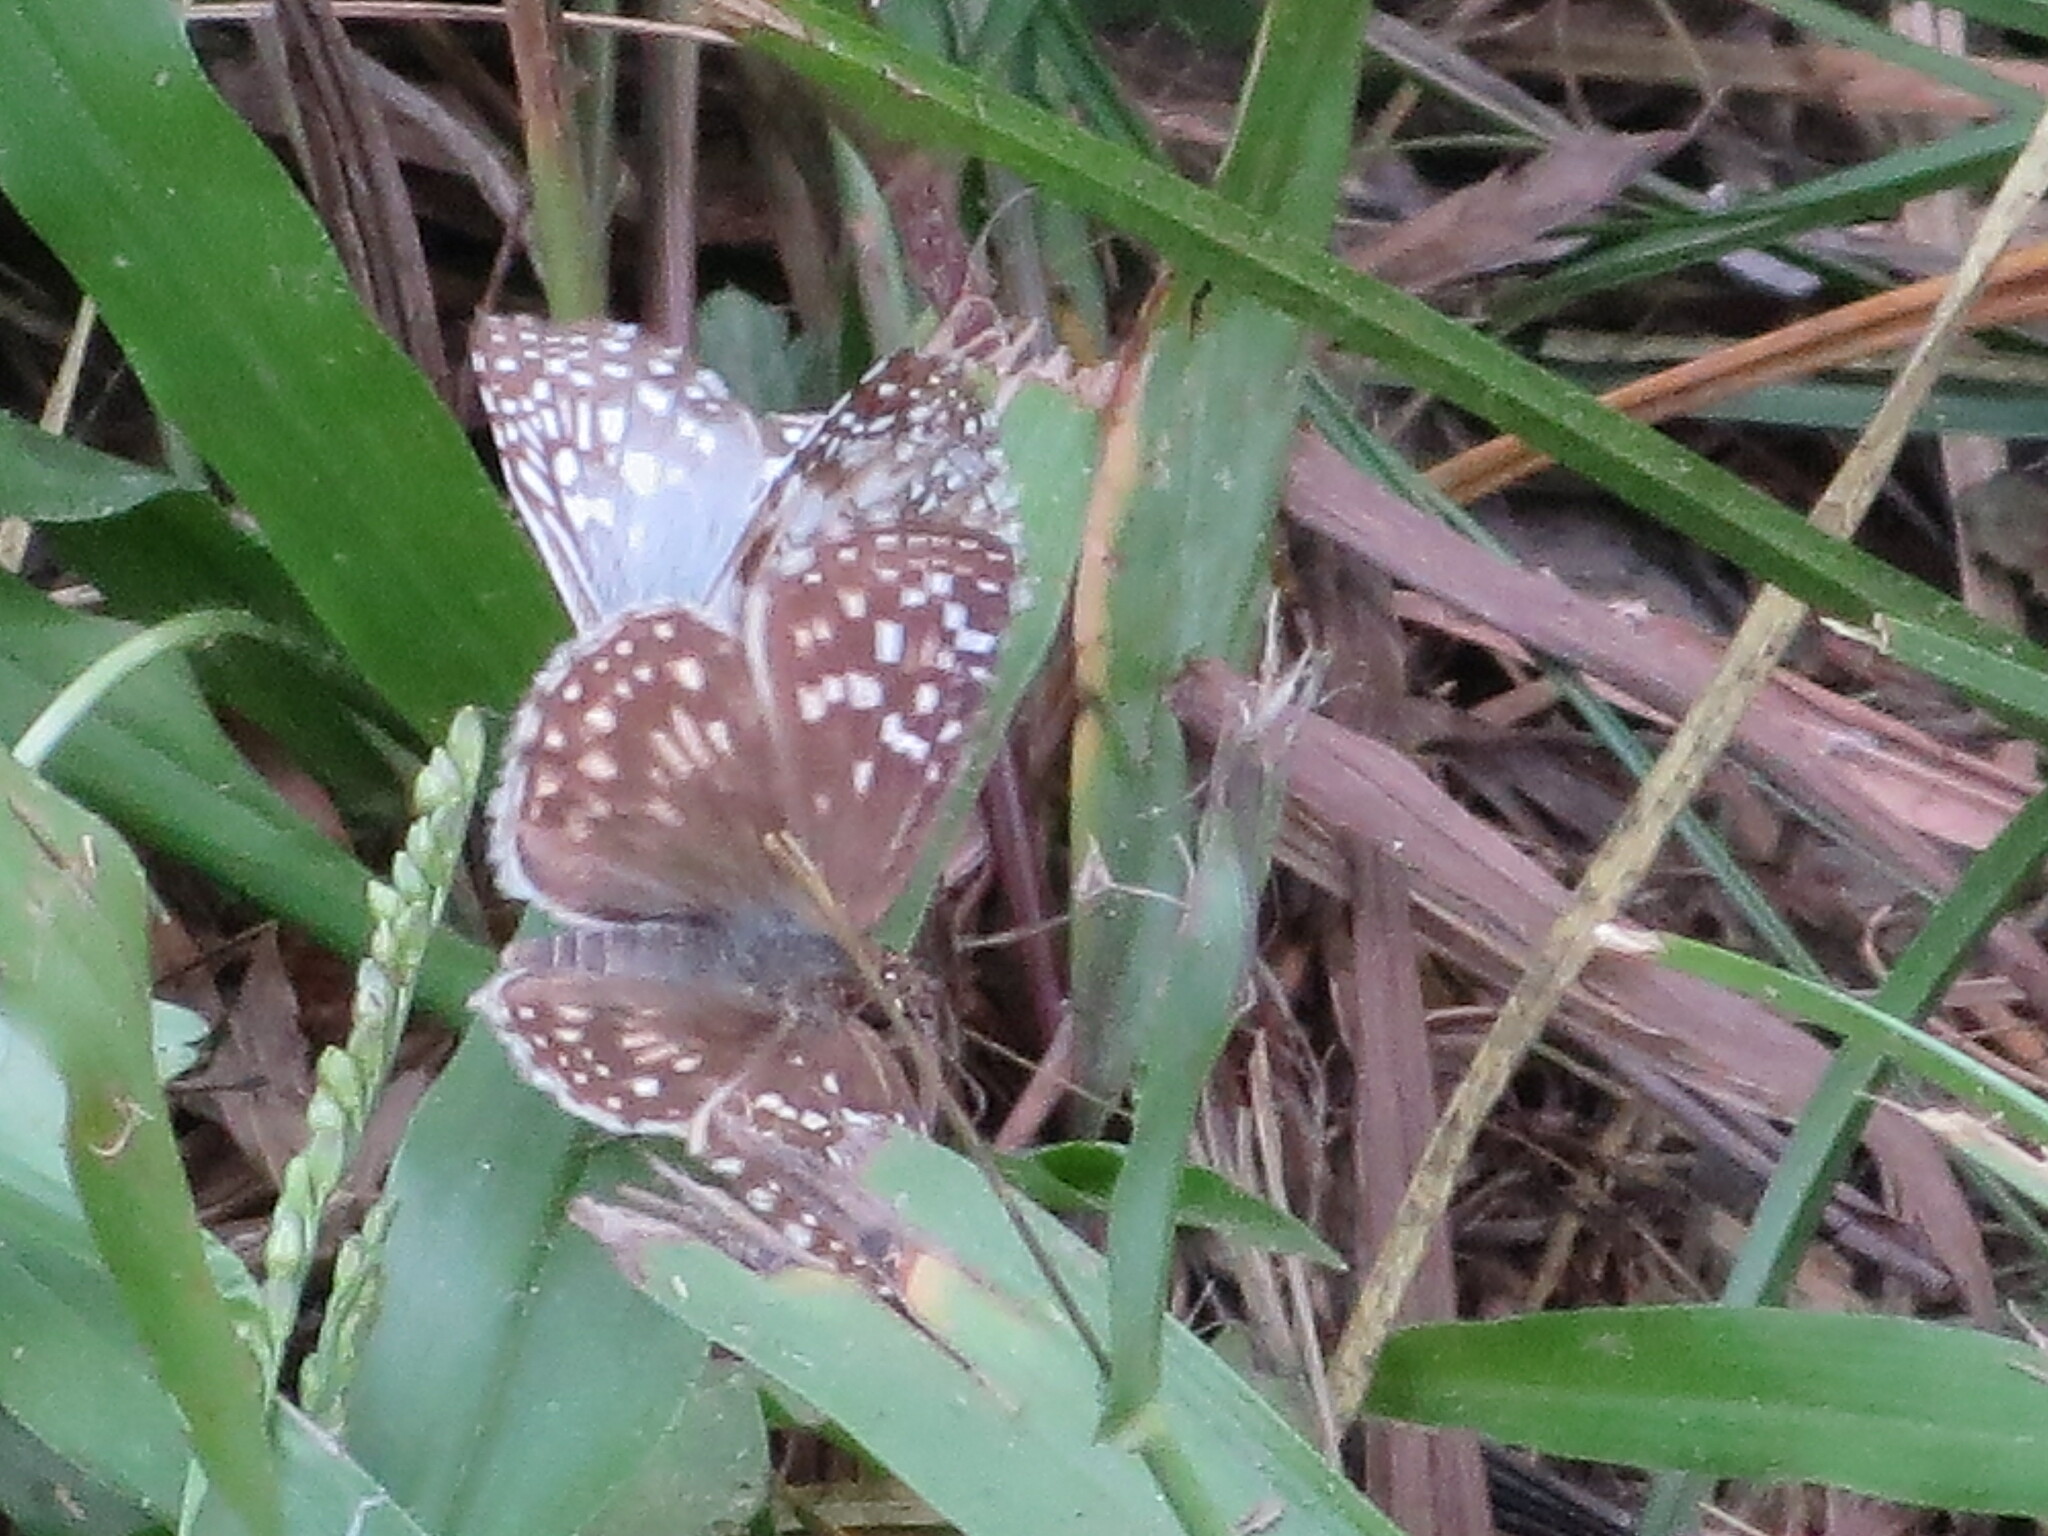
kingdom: Animalia
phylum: Arthropoda
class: Insecta
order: Lepidoptera
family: Hesperiidae
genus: Pyrgus
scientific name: Pyrgus oileus
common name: Tropical checkered-skipper
